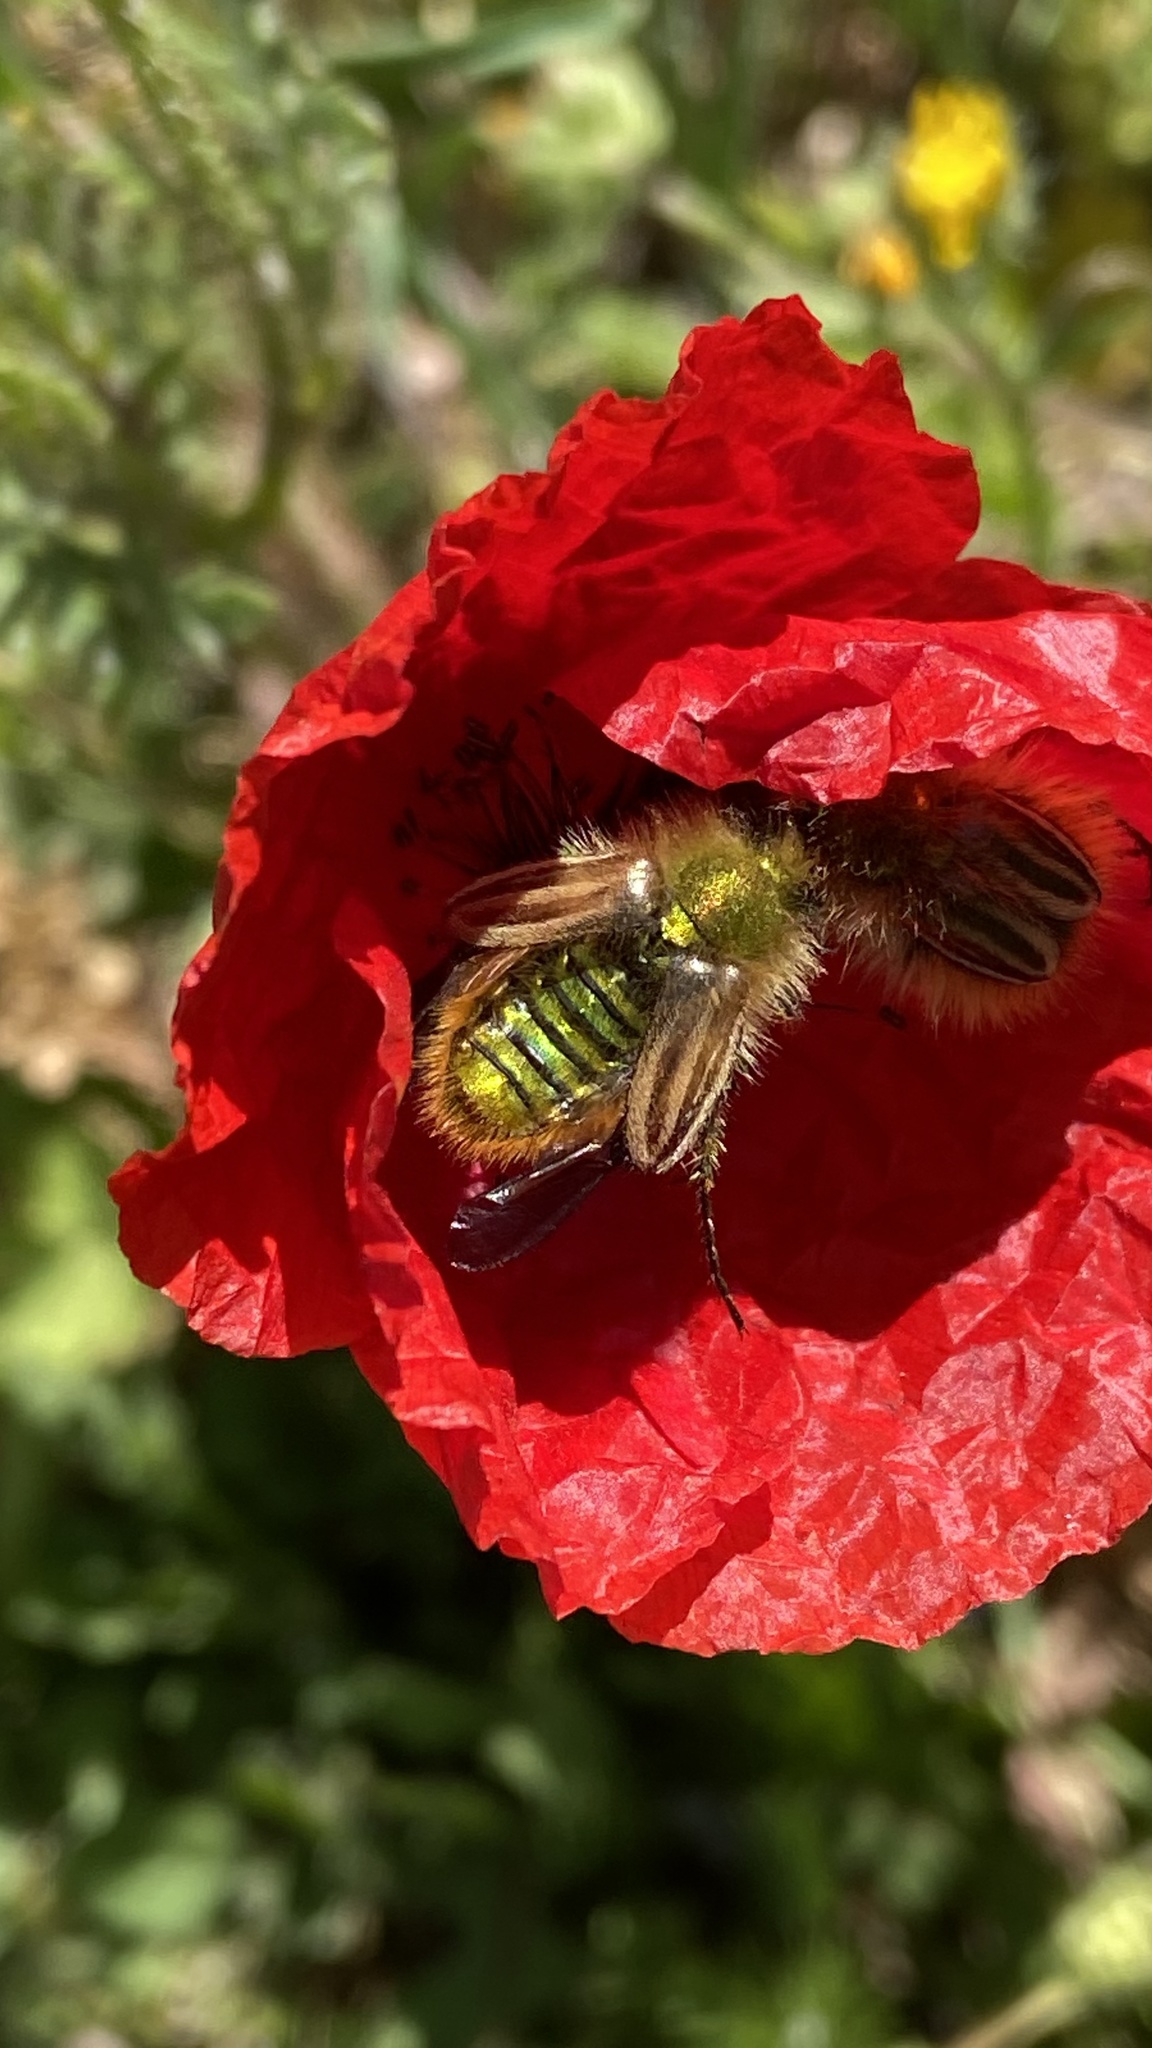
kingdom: Animalia
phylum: Arthropoda
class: Insecta
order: Coleoptera
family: Glaphyridae
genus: Eulasia
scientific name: Eulasia pareyssei
